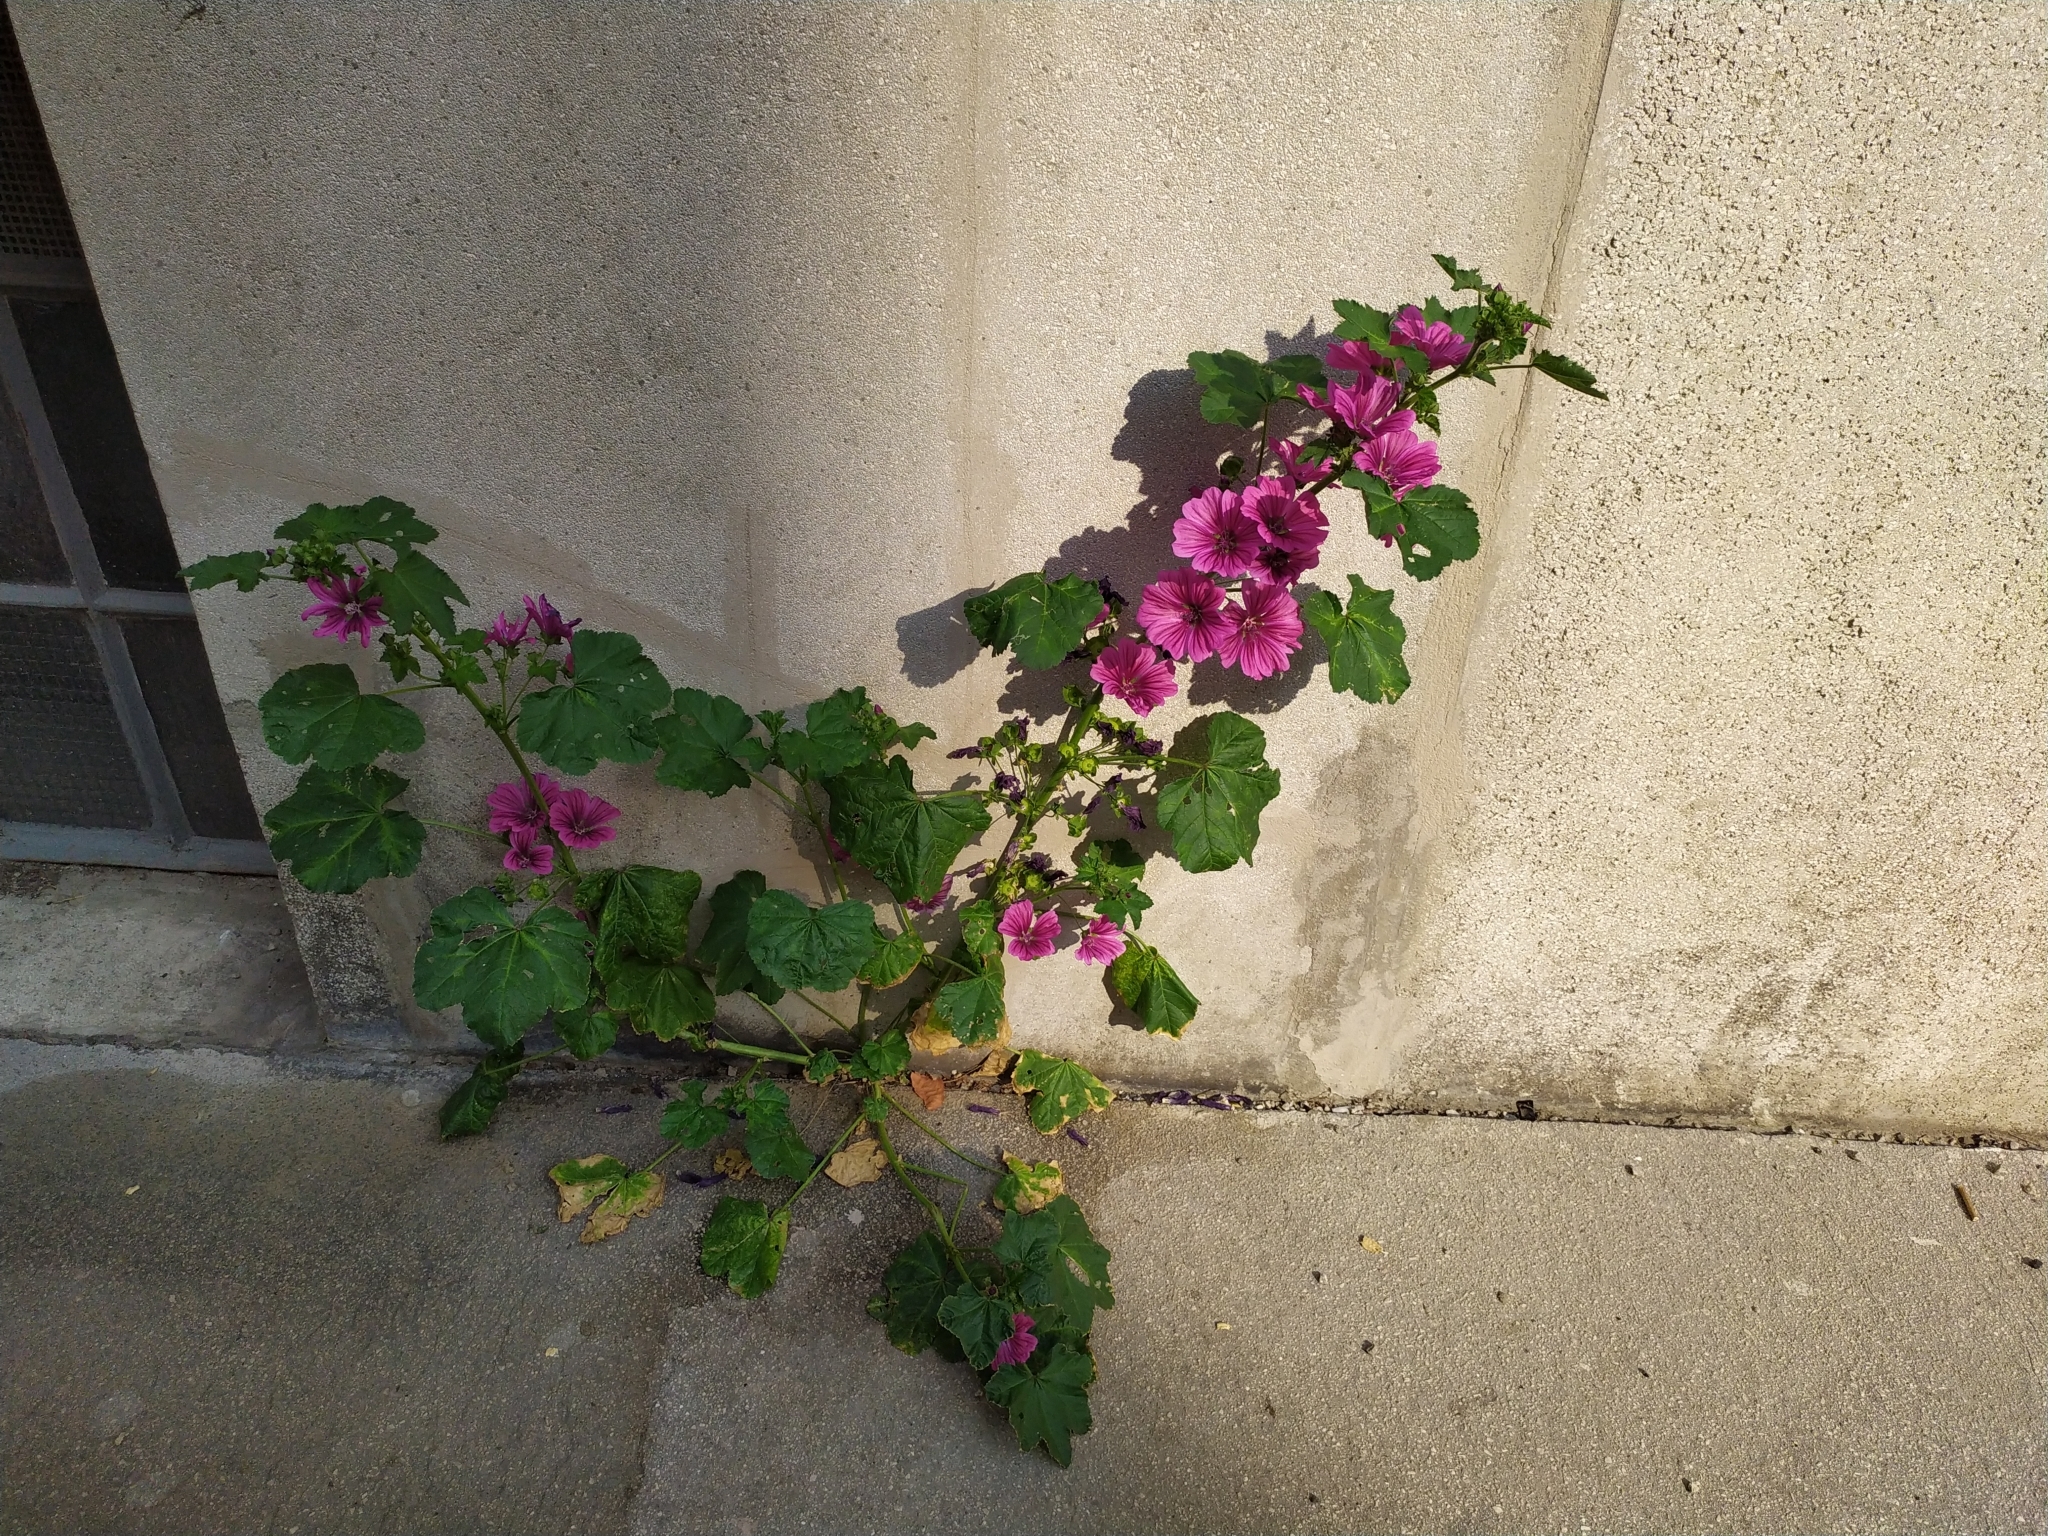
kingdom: Plantae
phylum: Tracheophyta
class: Magnoliopsida
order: Malvales
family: Malvaceae
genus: Malva
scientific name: Malva sylvestris
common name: Common mallow
